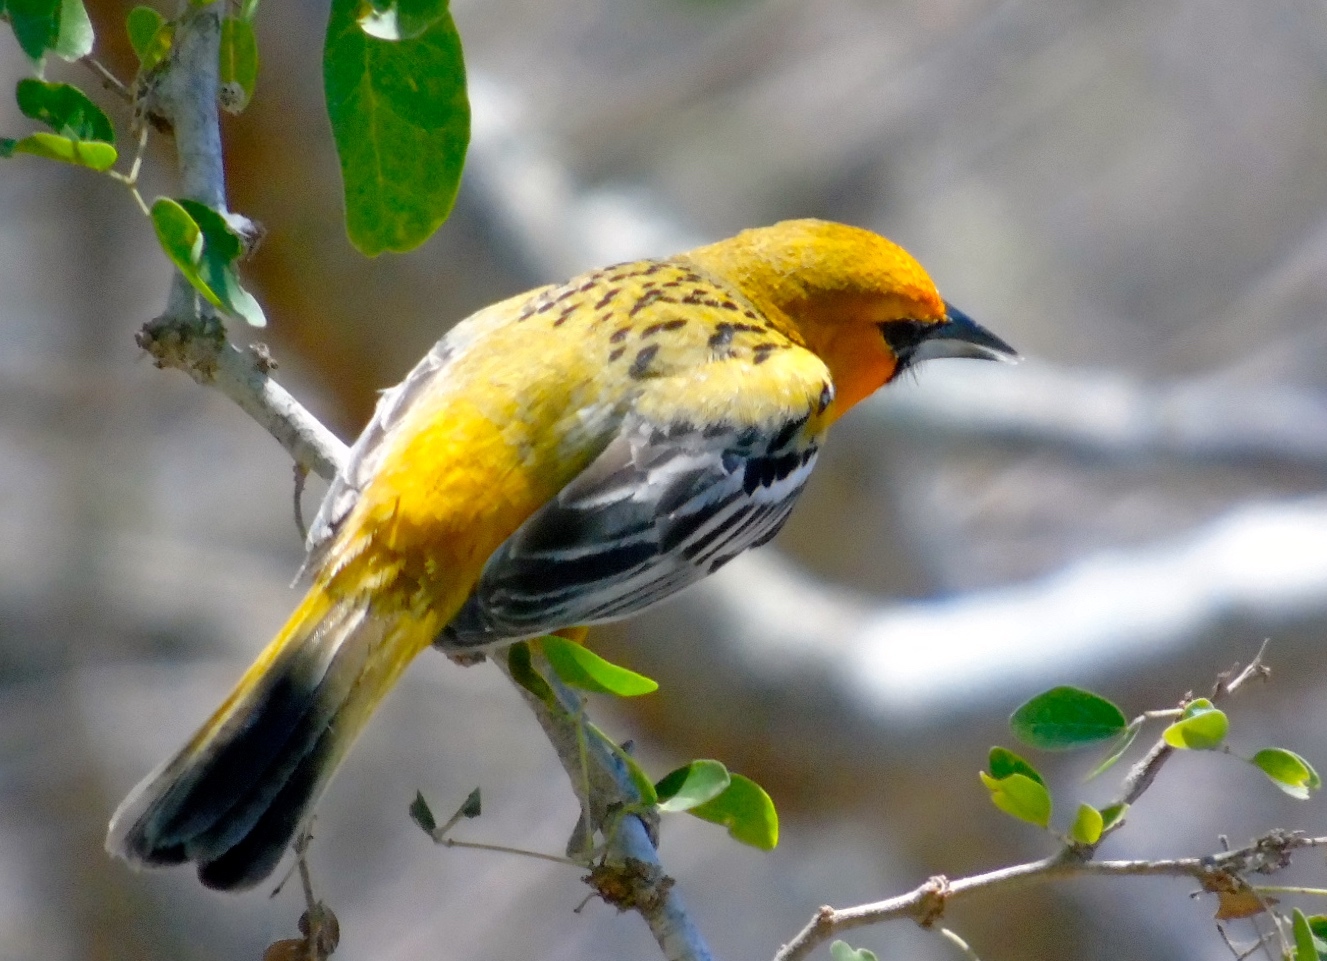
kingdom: Animalia
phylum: Chordata
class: Aves
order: Passeriformes
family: Icteridae
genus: Icterus
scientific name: Icterus pustulatus
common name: Streak-backed oriole
